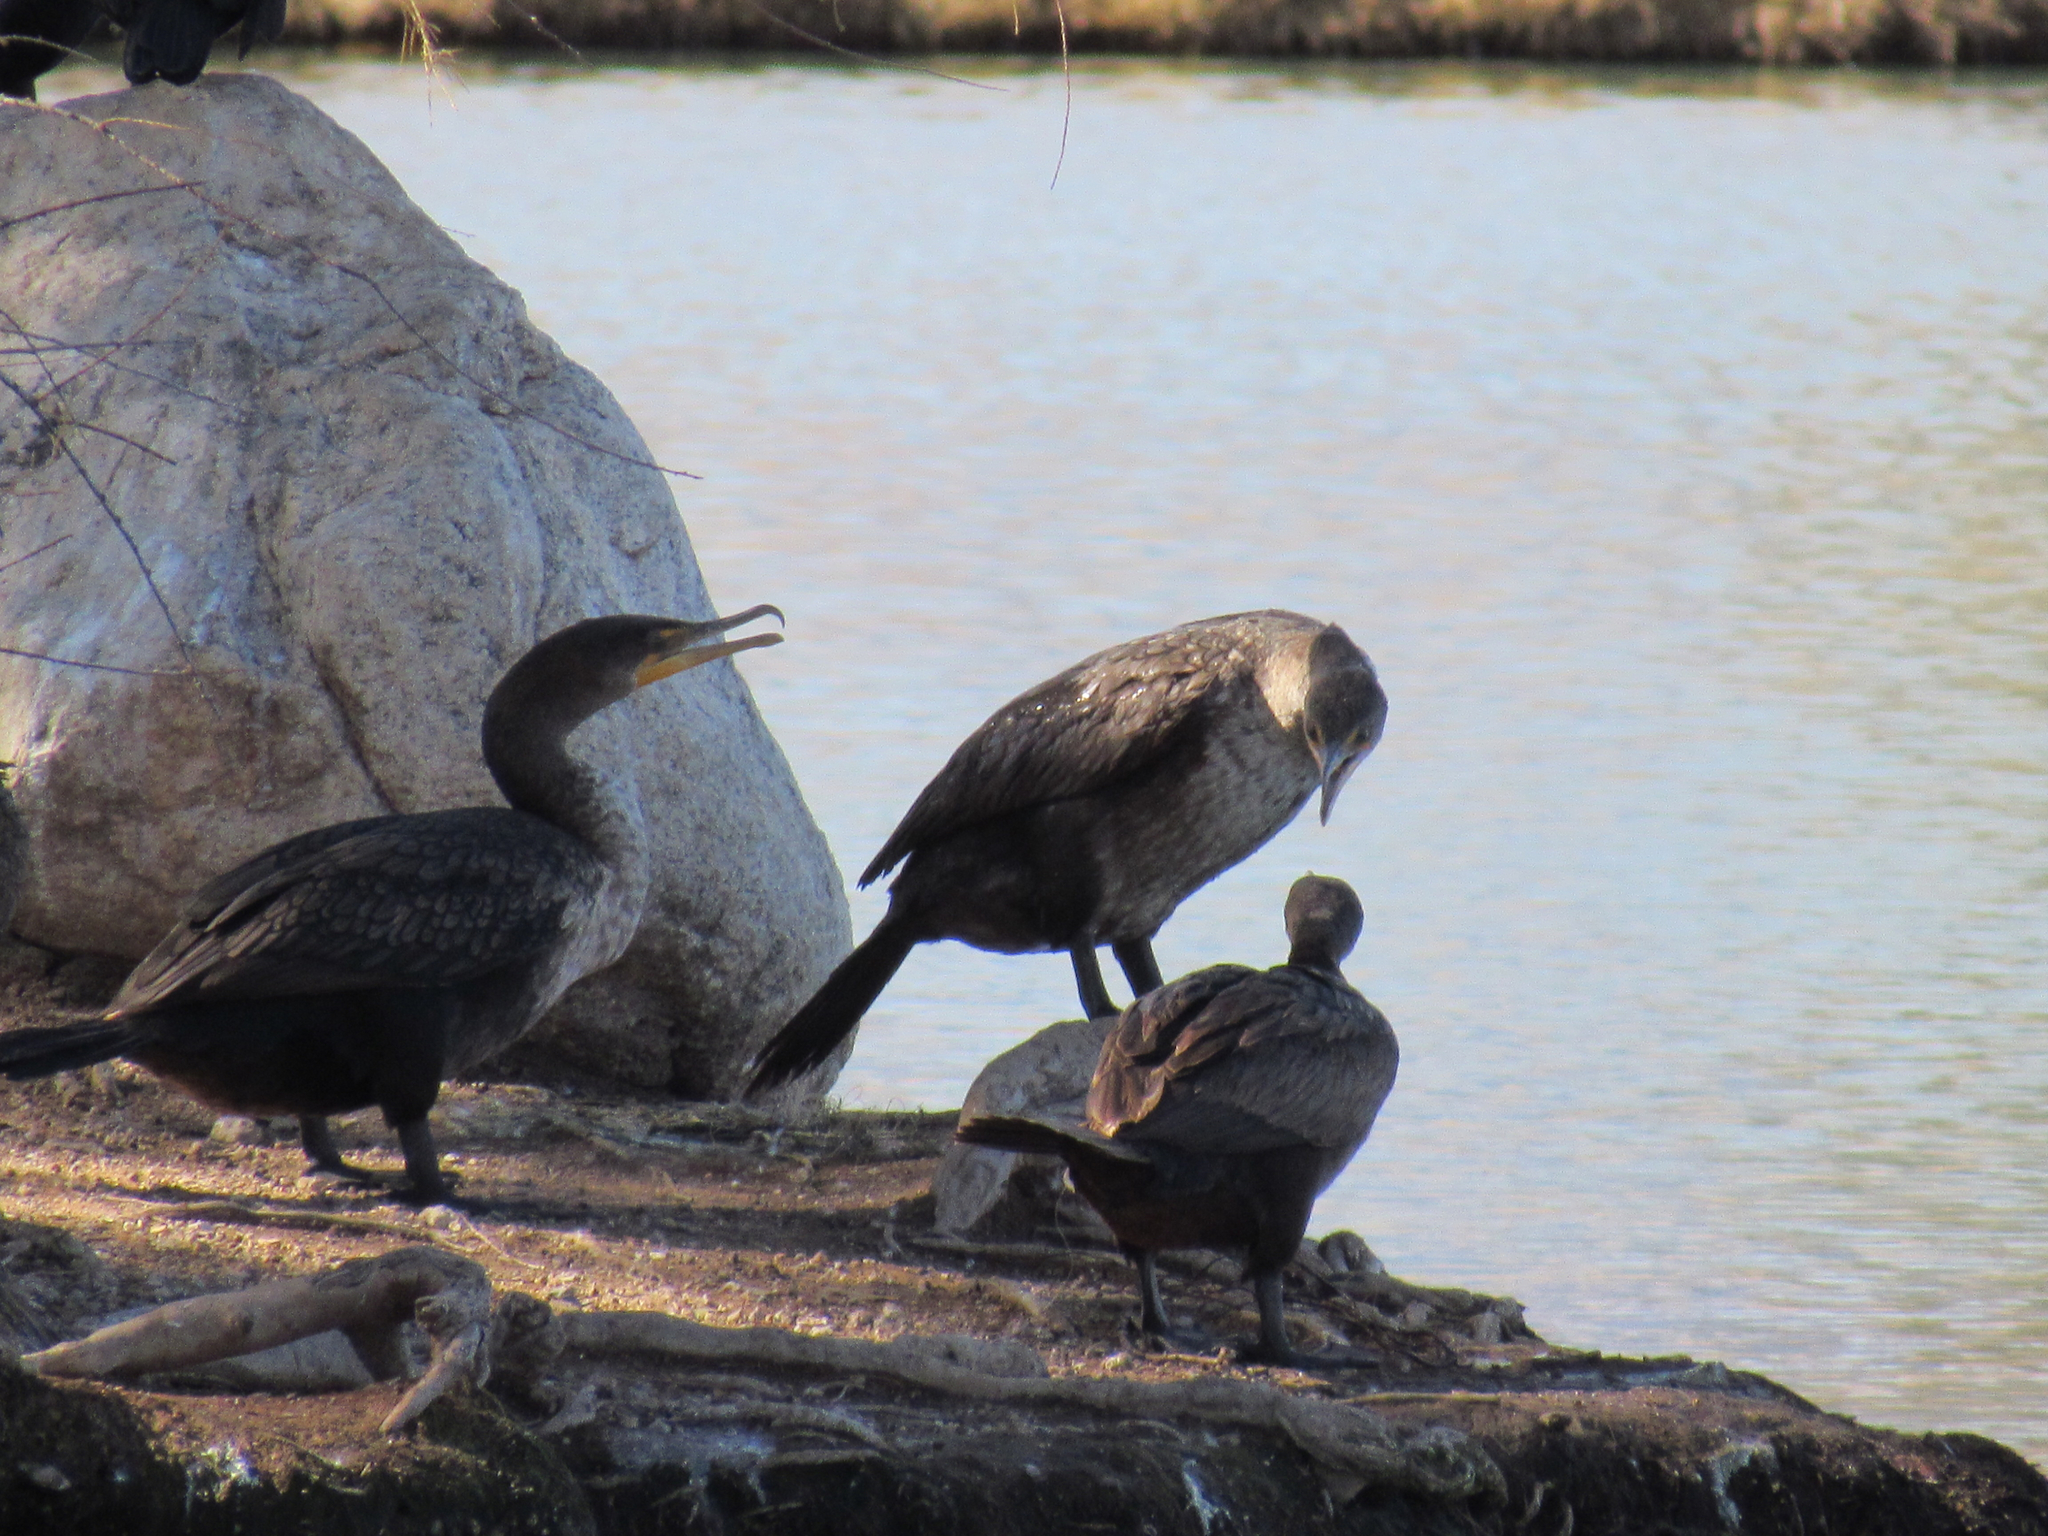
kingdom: Animalia
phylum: Chordata
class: Aves
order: Suliformes
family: Phalacrocoracidae
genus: Phalacrocorax
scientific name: Phalacrocorax auritus
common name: Double-crested cormorant
